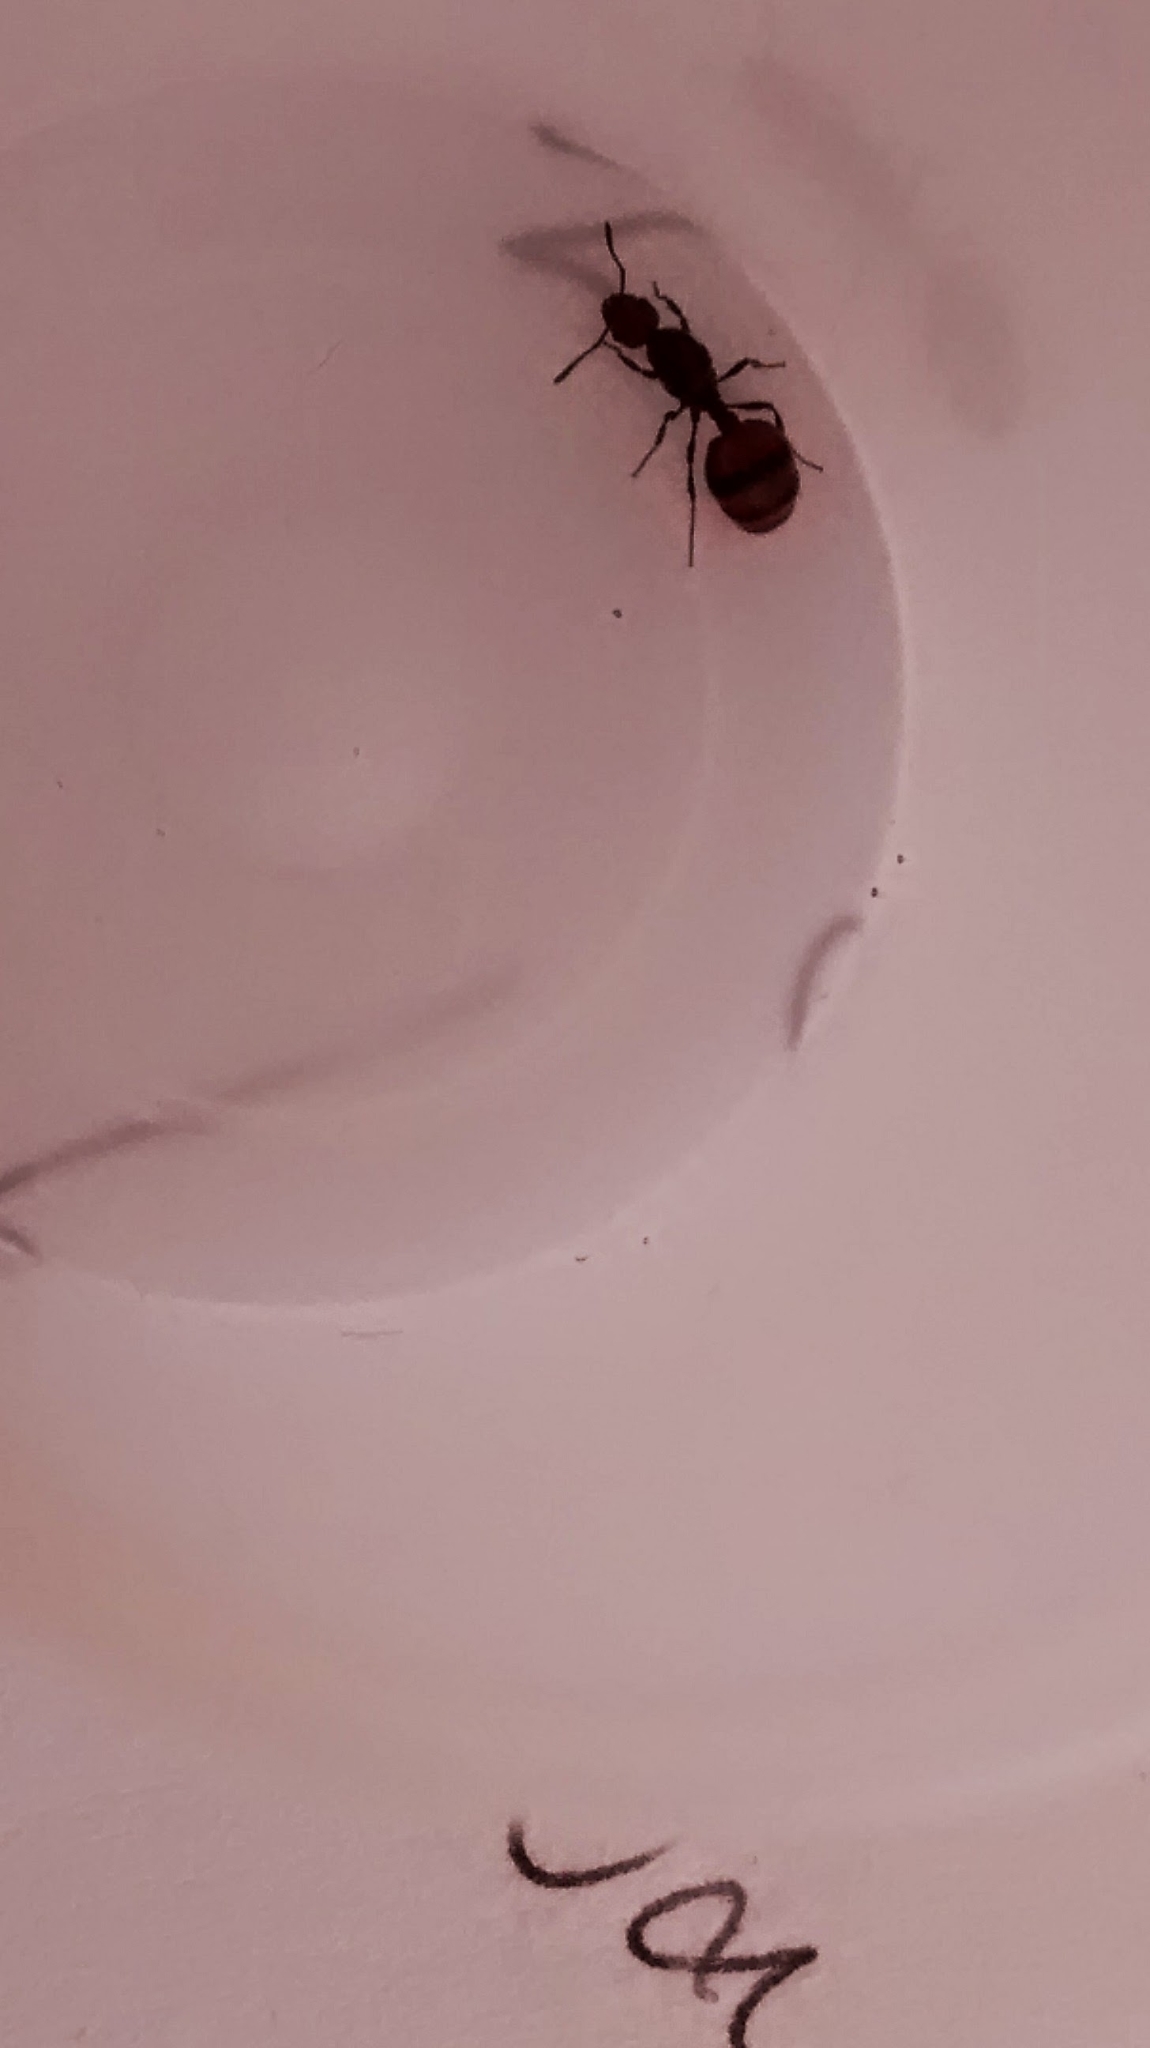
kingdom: Animalia
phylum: Arthropoda
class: Insecta
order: Hymenoptera
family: Formicidae
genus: Monomorium
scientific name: Monomorium antarcticum
